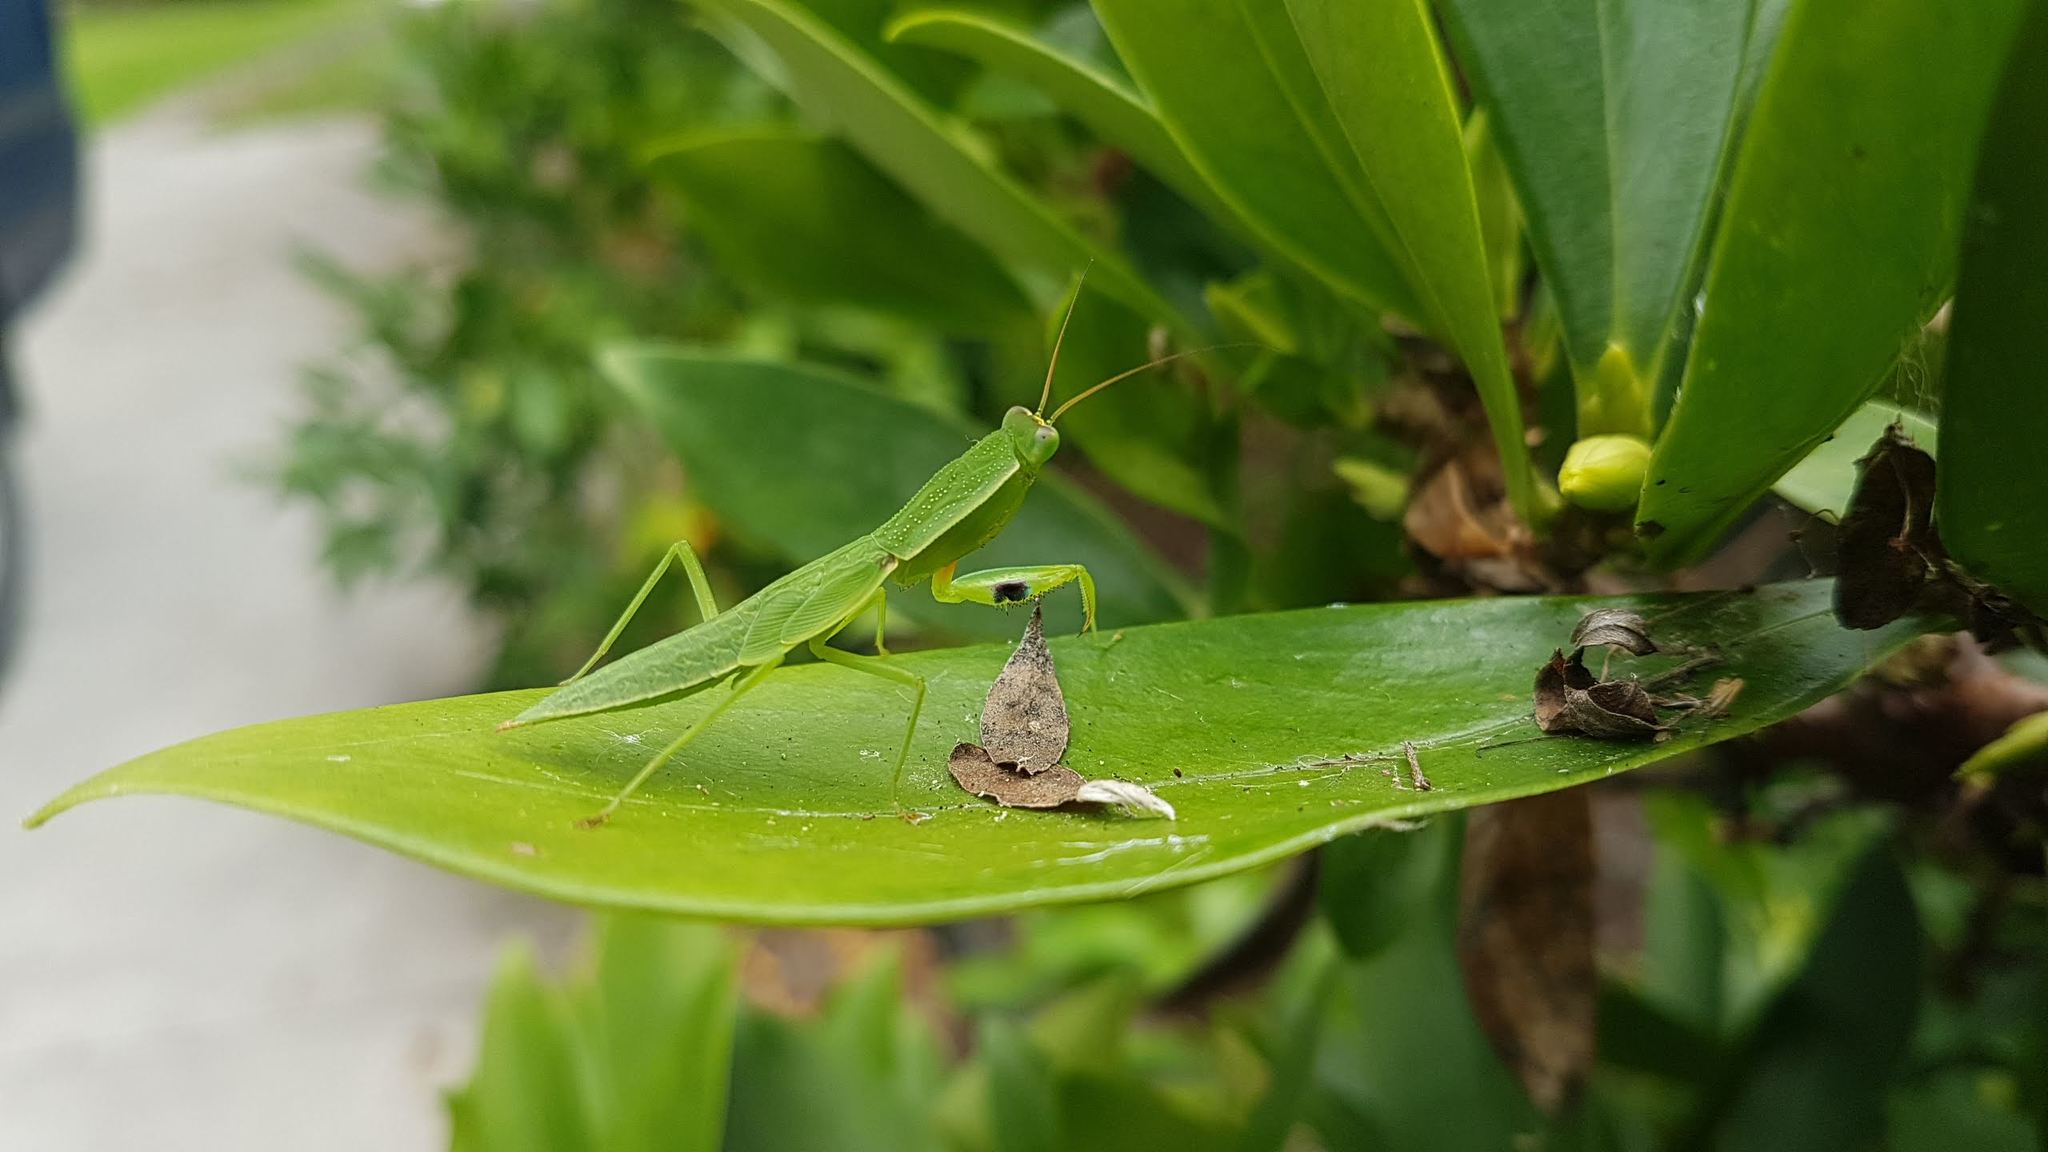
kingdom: Animalia
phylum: Arthropoda
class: Insecta
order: Mantodea
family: Mantidae
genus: Orthodera
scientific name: Orthodera novaezealandiae
